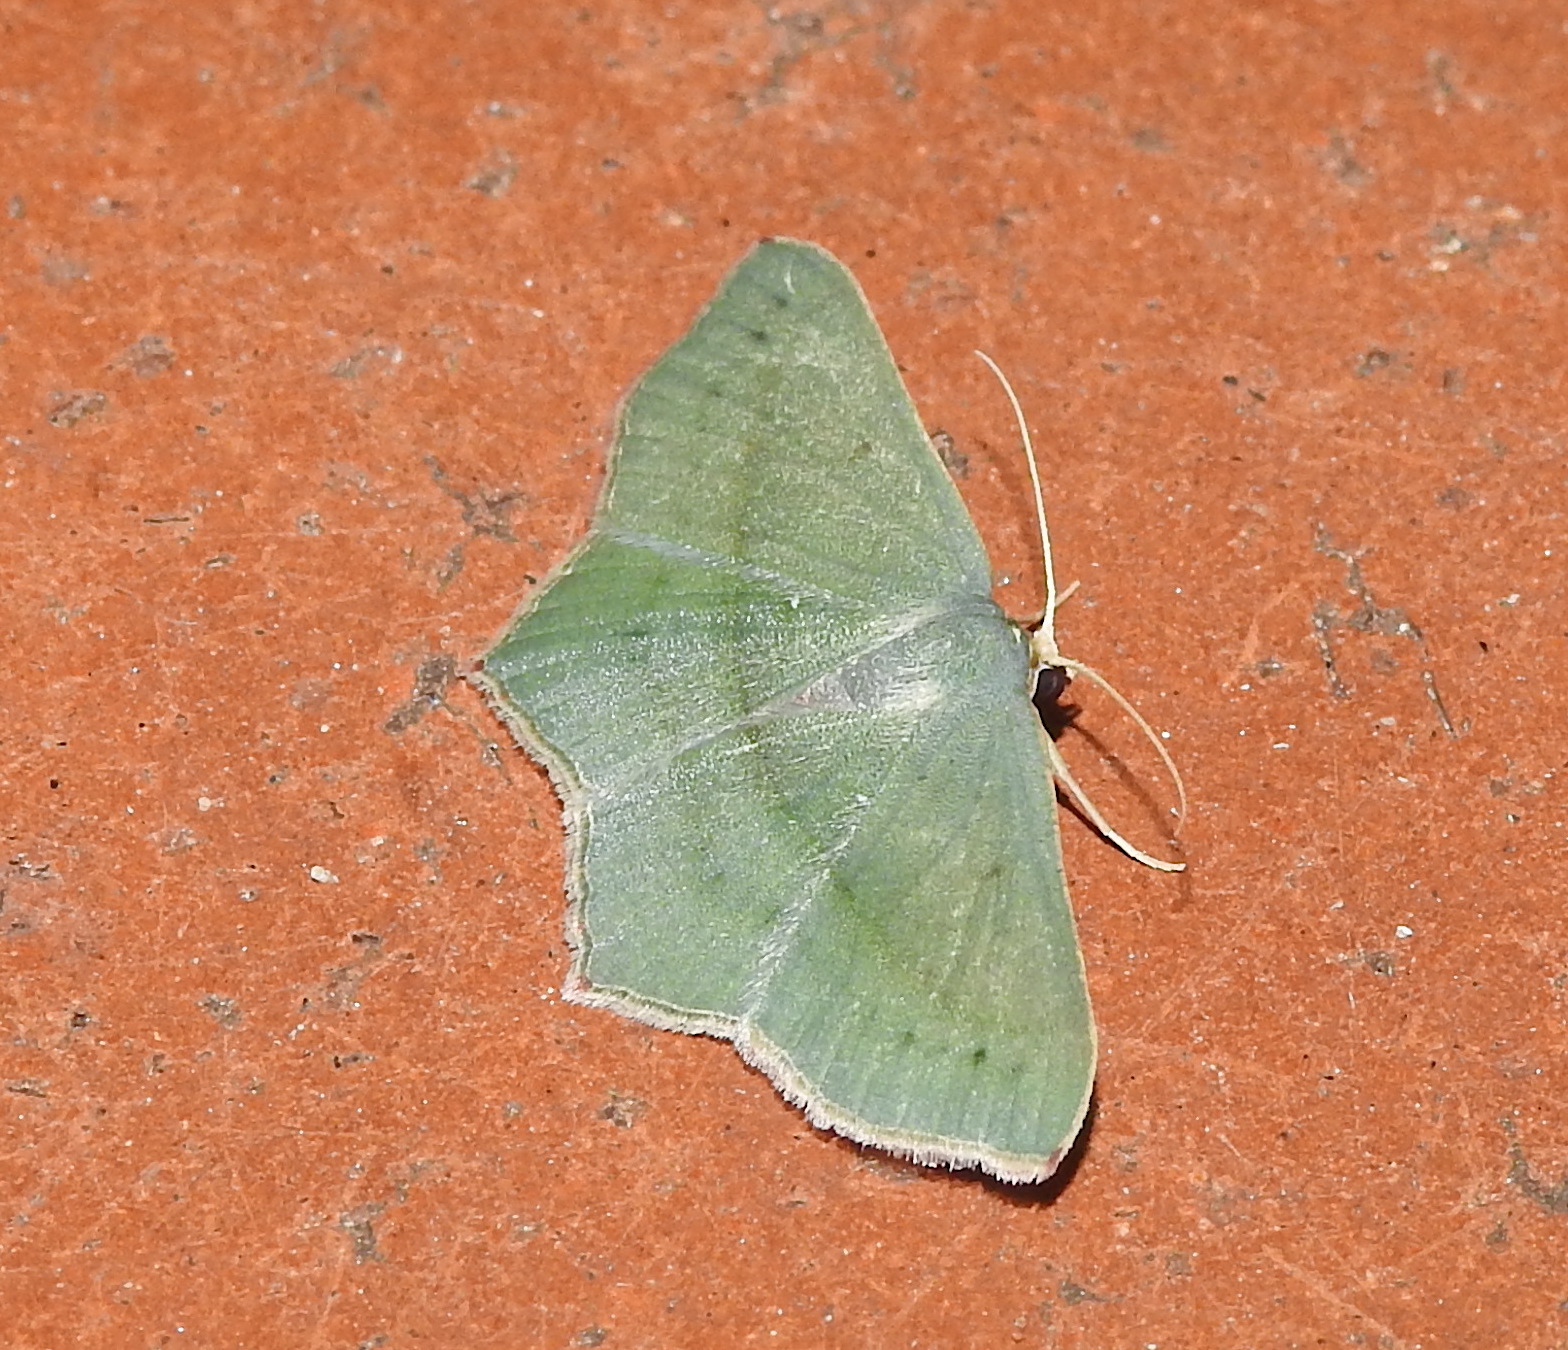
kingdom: Animalia
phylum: Arthropoda
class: Insecta
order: Lepidoptera
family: Geometridae
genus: Traminda
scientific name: Traminda mundissima
